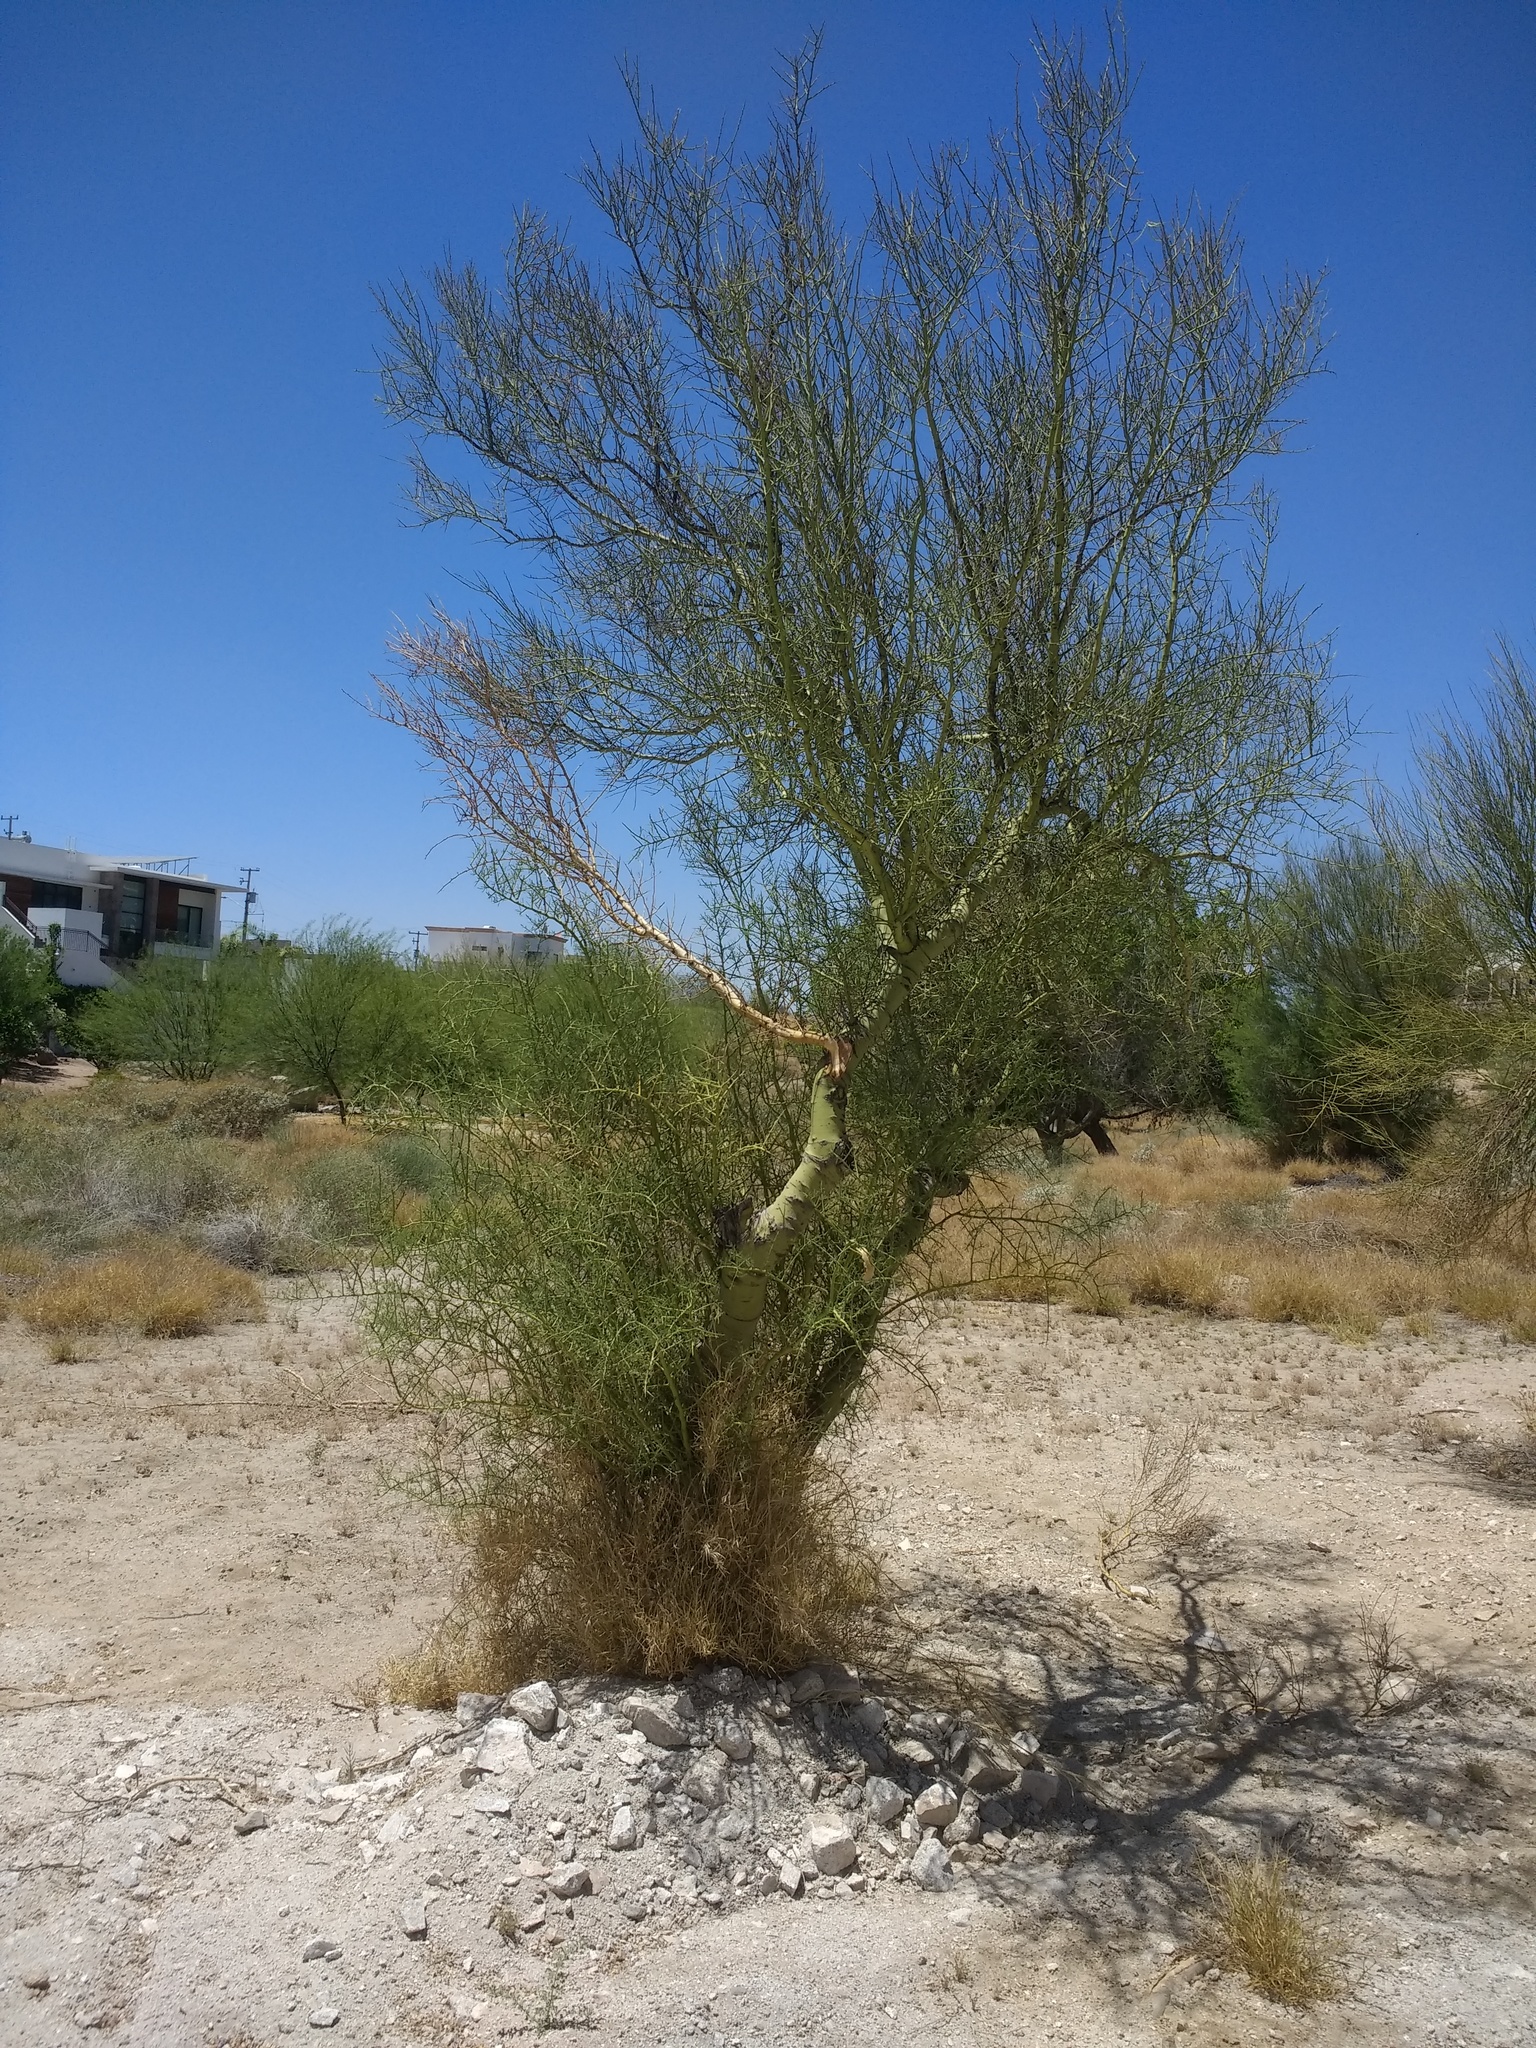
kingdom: Plantae
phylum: Tracheophyta
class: Magnoliopsida
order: Fabales
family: Fabaceae
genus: Parkinsonia
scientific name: Parkinsonia microphylla
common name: Yellow paloverde
